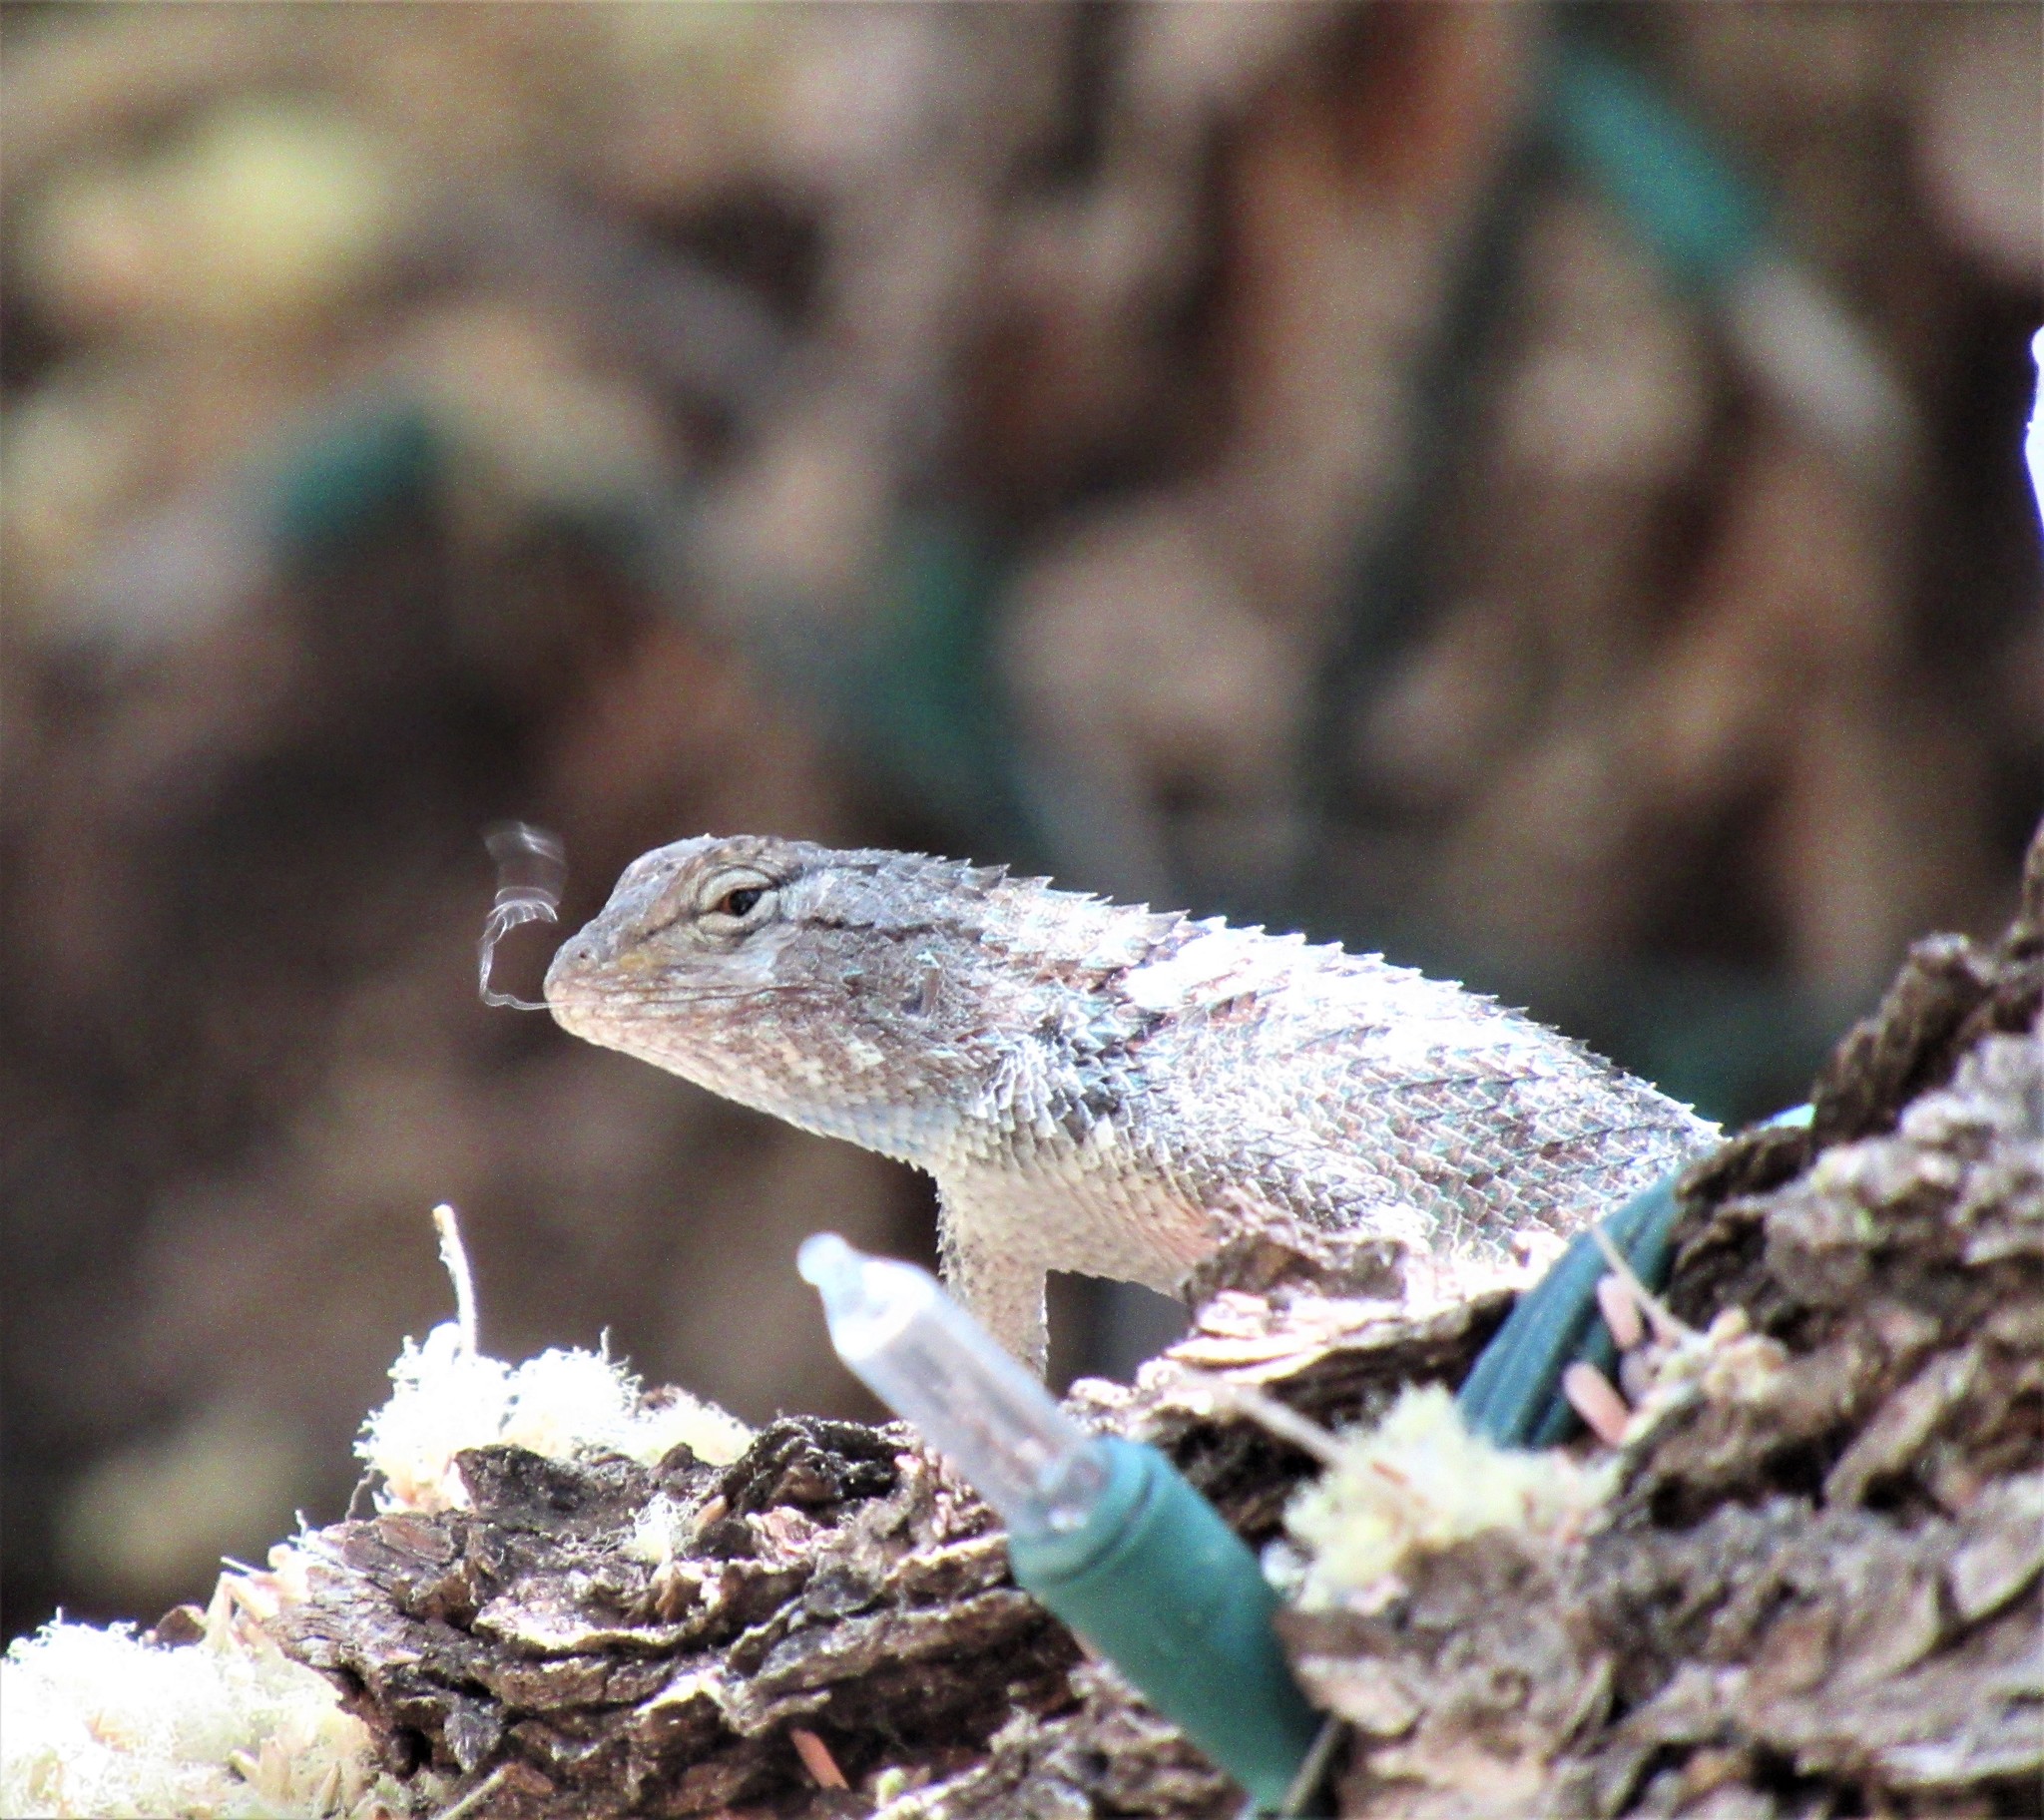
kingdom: Animalia
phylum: Chordata
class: Squamata
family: Phrynosomatidae
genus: Sceloporus
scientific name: Sceloporus clarkii
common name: Clark's spiny lizard
